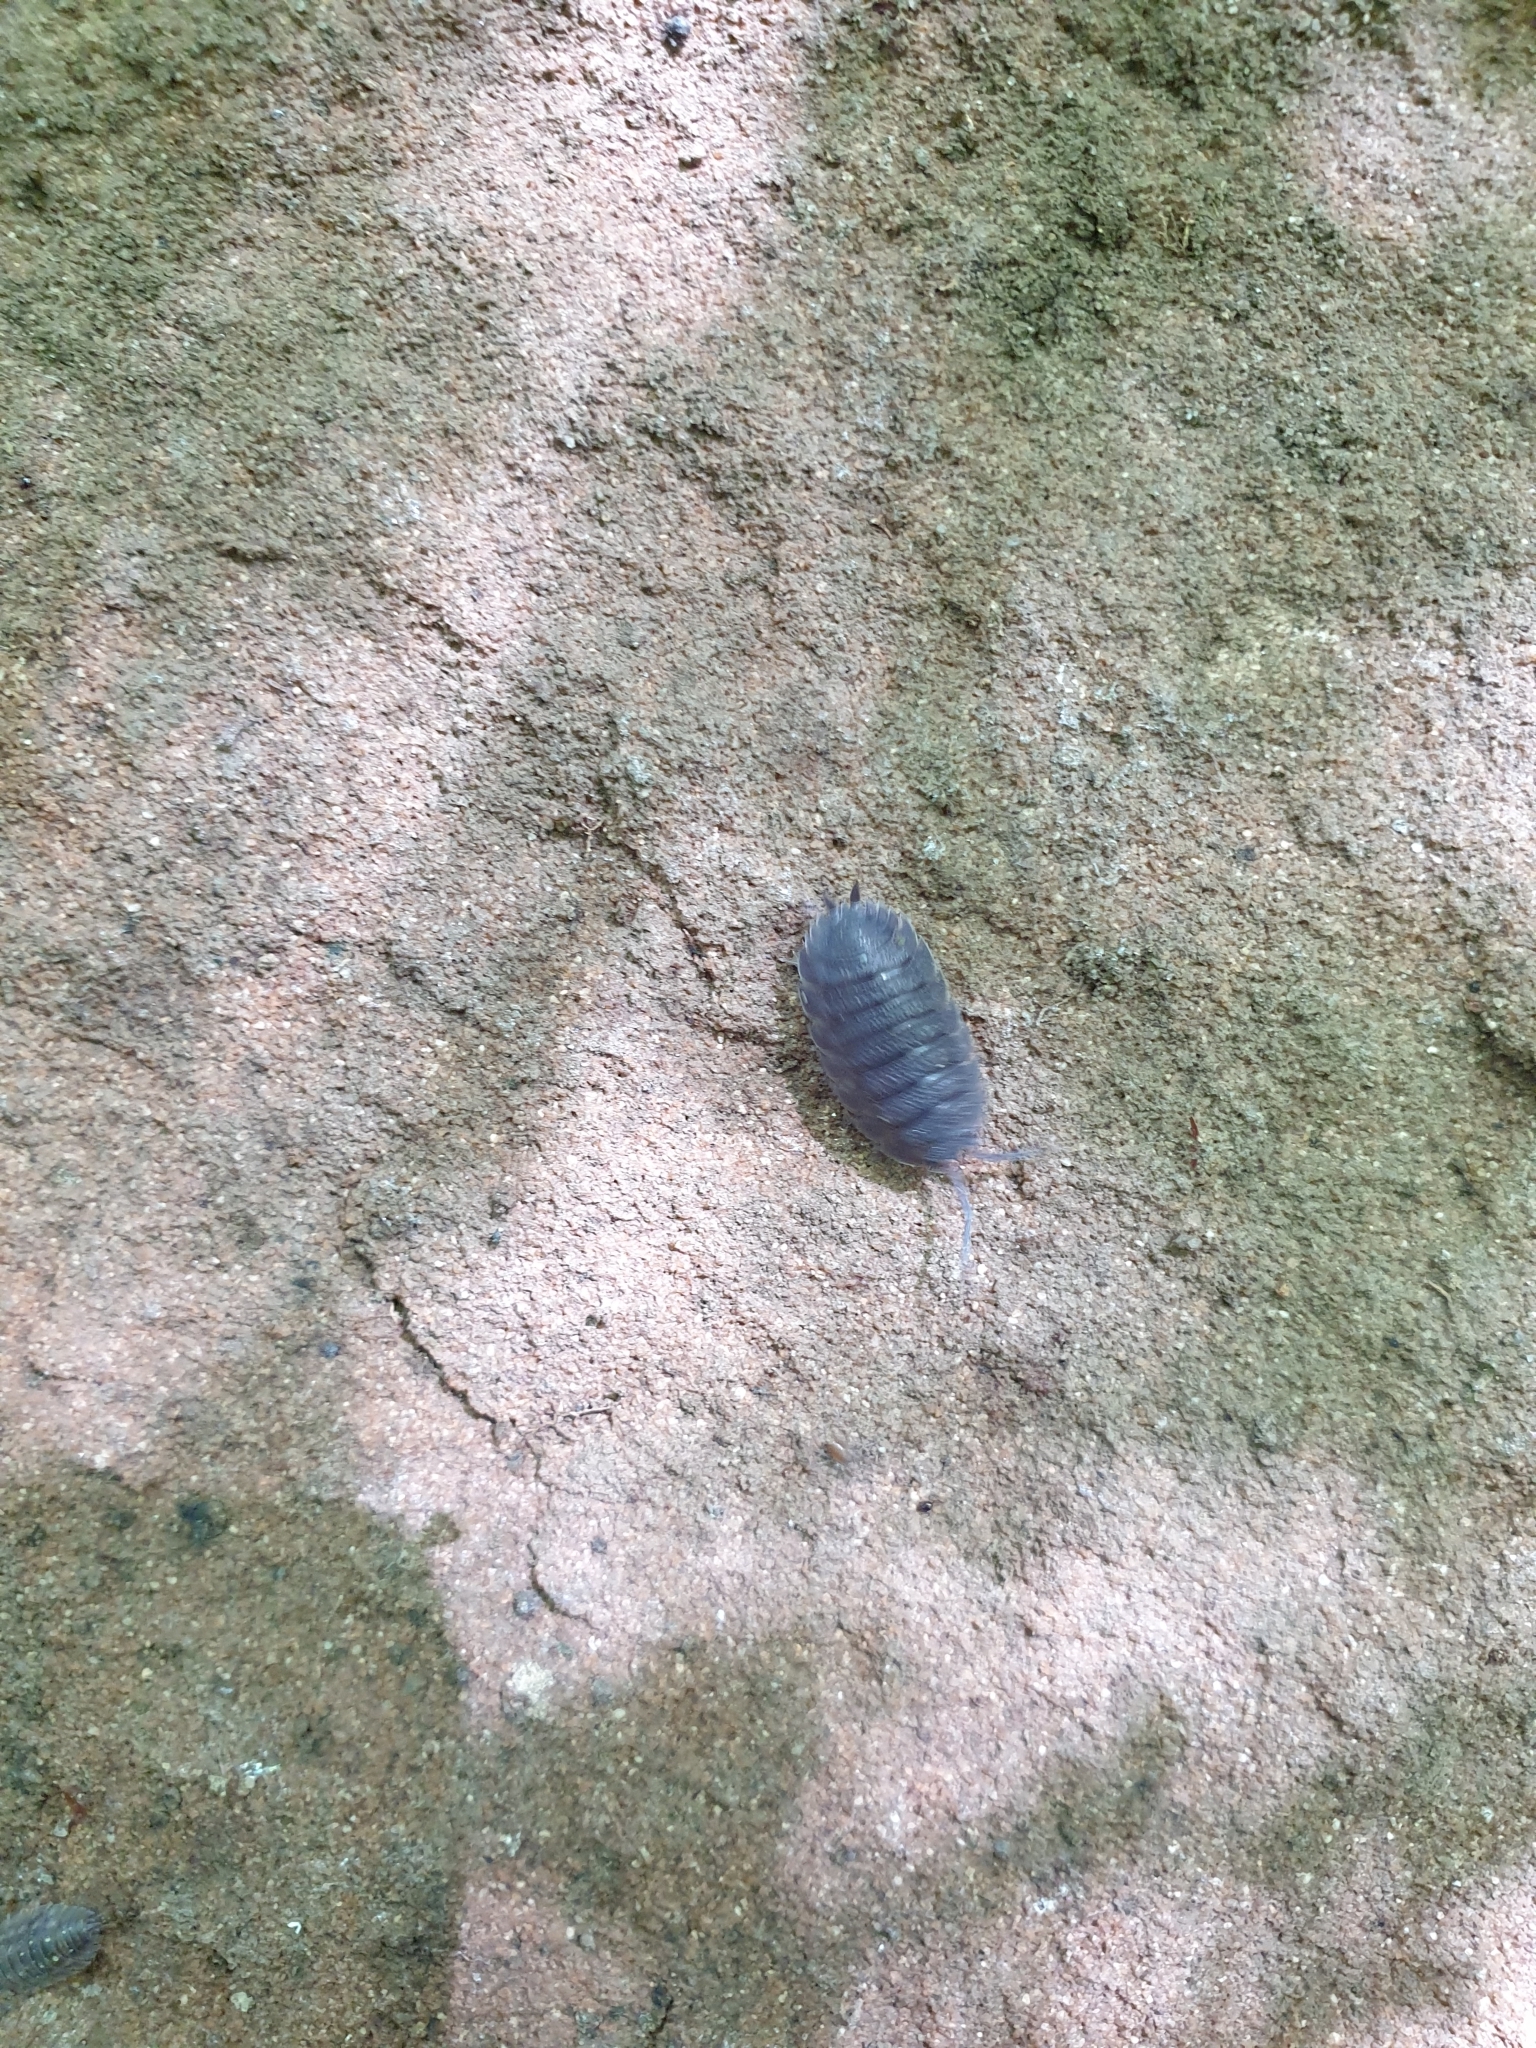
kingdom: Animalia
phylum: Arthropoda
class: Malacostraca
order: Isopoda
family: Porcellionidae
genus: Porcellio
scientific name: Porcellio scaber
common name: Common rough woodlouse
